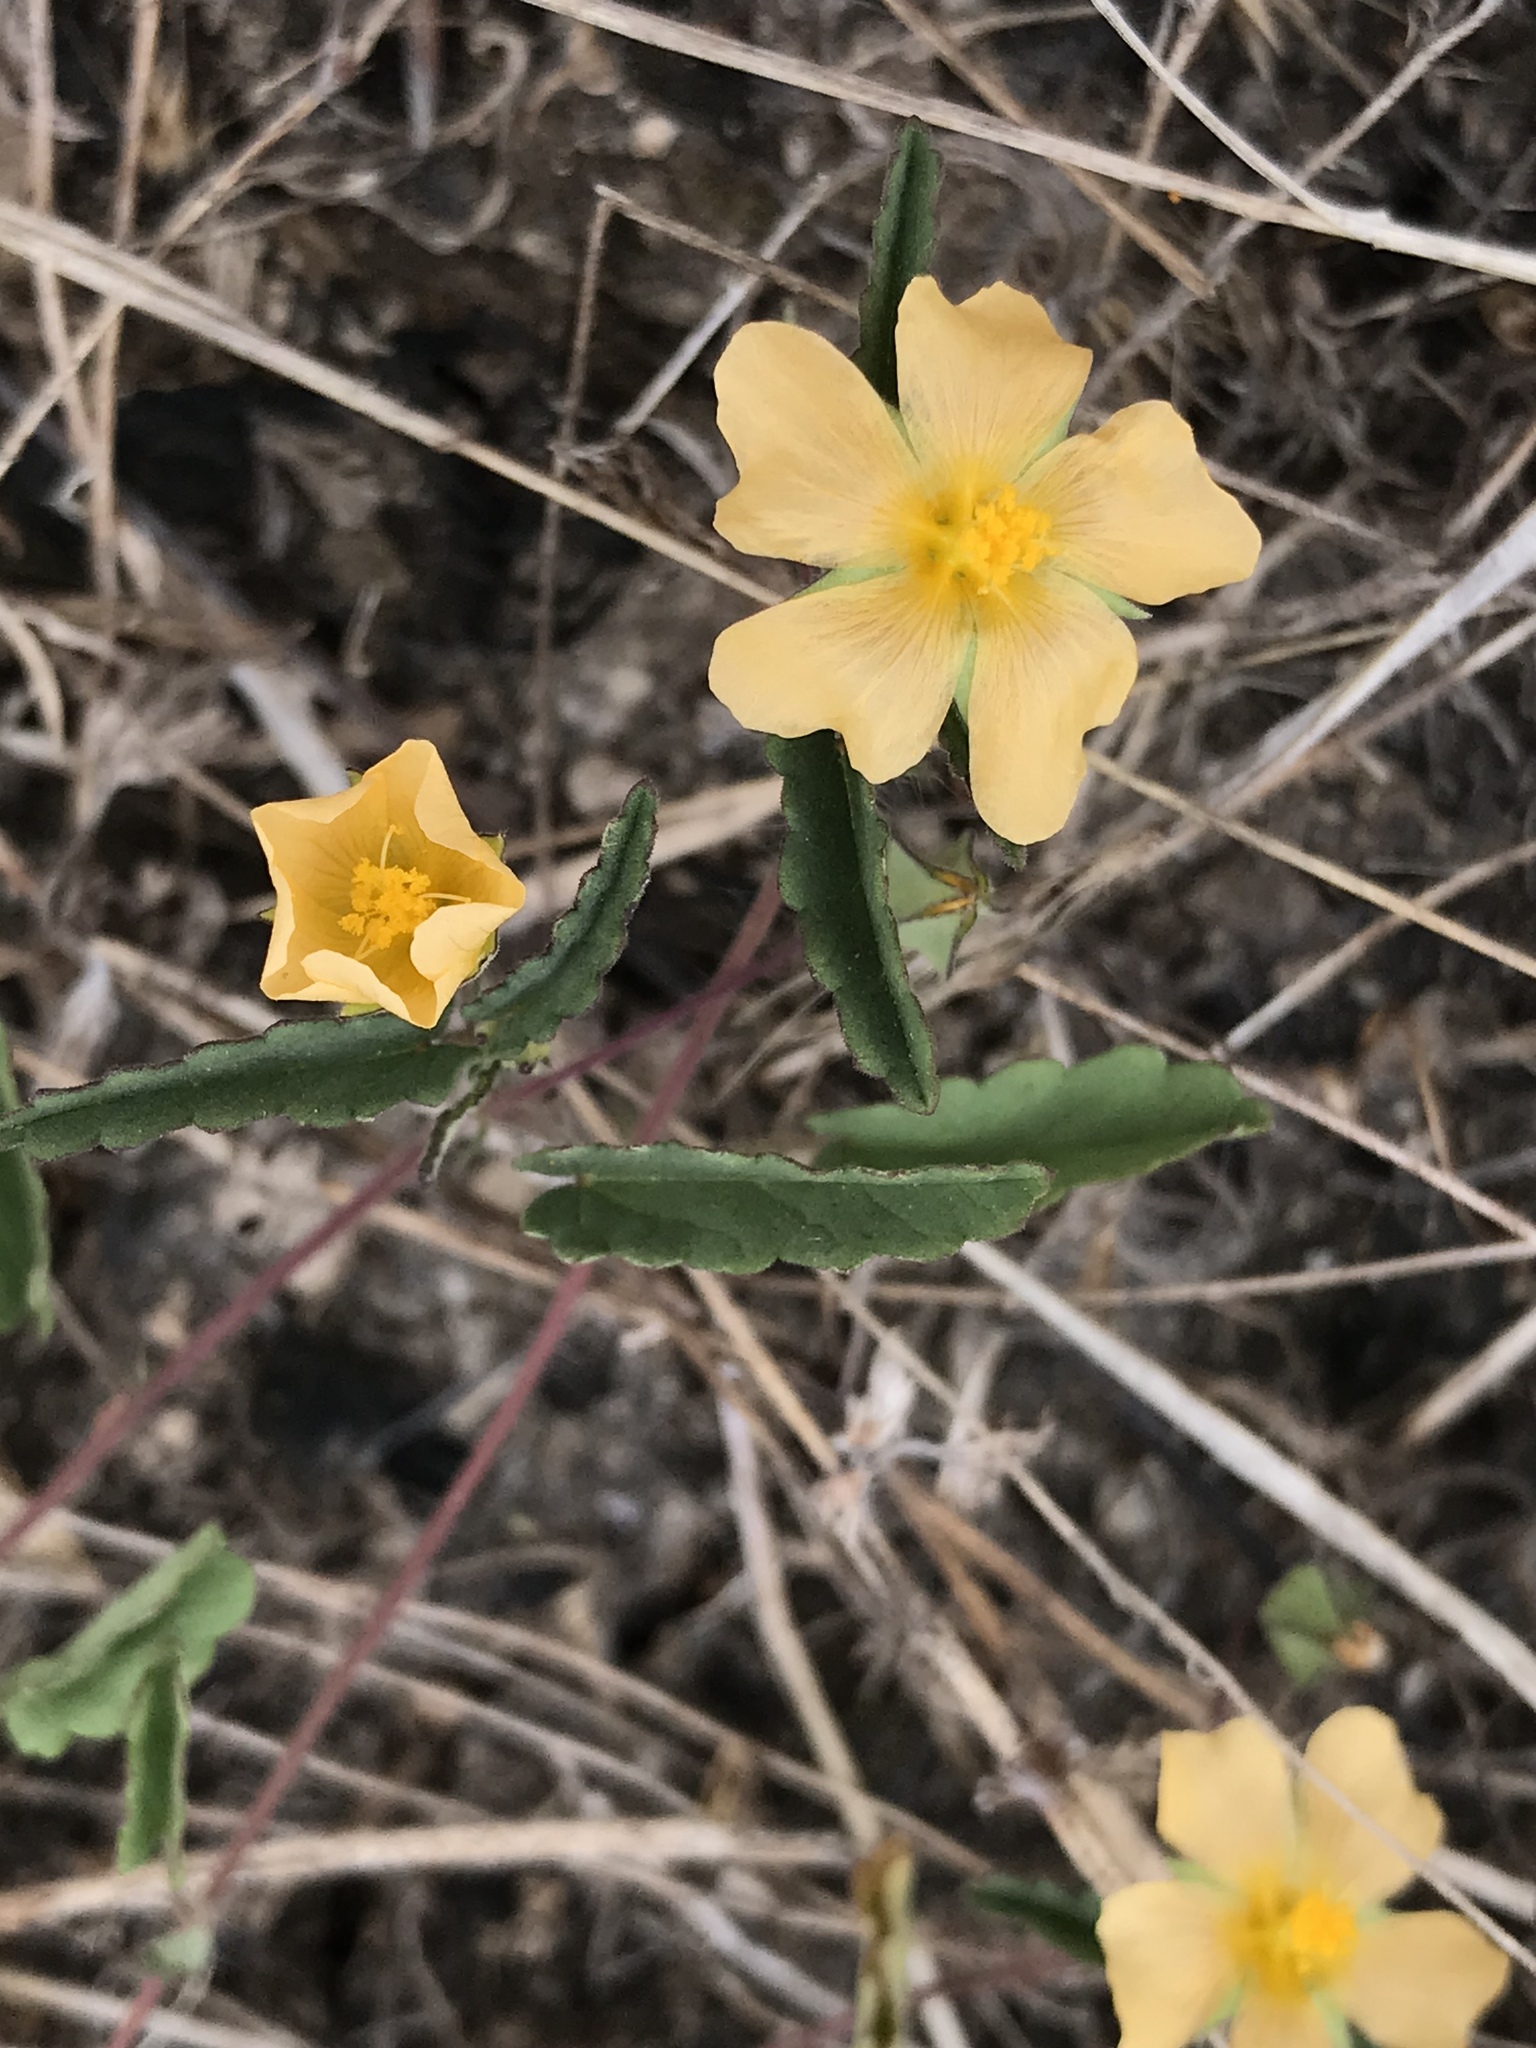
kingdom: Plantae
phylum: Tracheophyta
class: Magnoliopsida
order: Malvales
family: Malvaceae
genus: Sida
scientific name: Sida abutilifolia
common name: Spreading fanpetals
